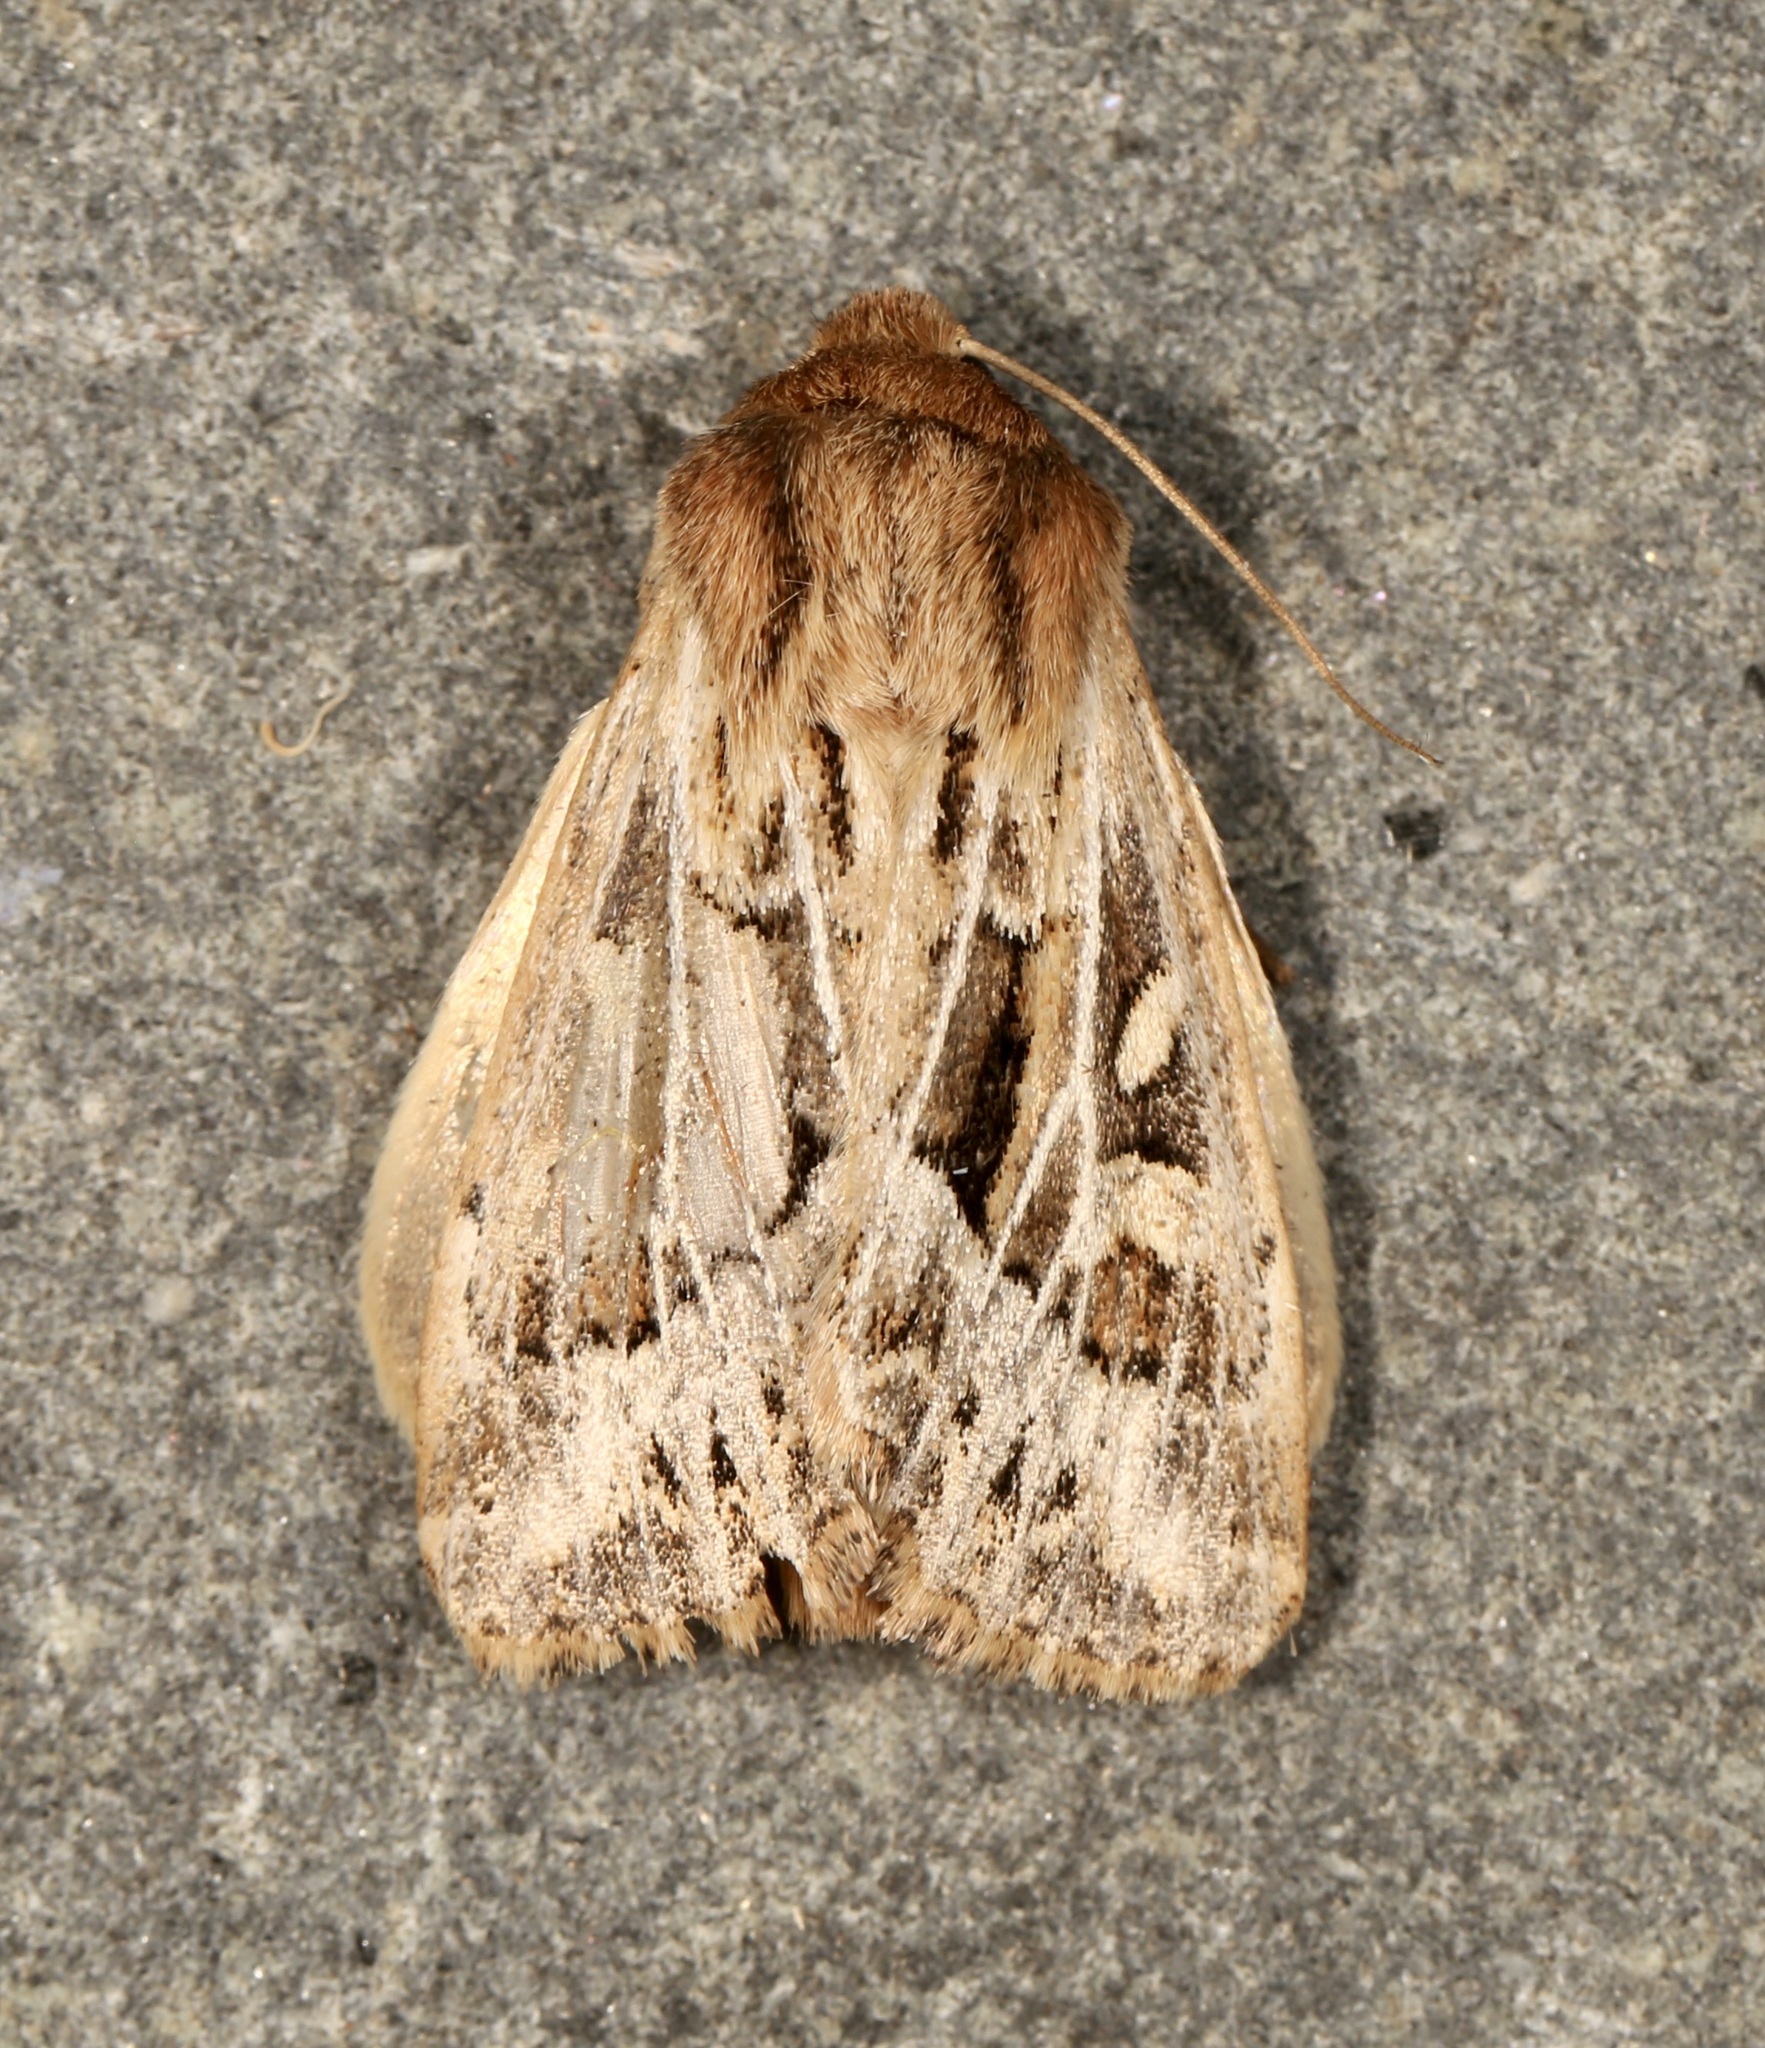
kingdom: Animalia
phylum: Arthropoda
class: Insecta
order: Lepidoptera
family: Noctuidae
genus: Apamea
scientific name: Apamea niveivenosa
